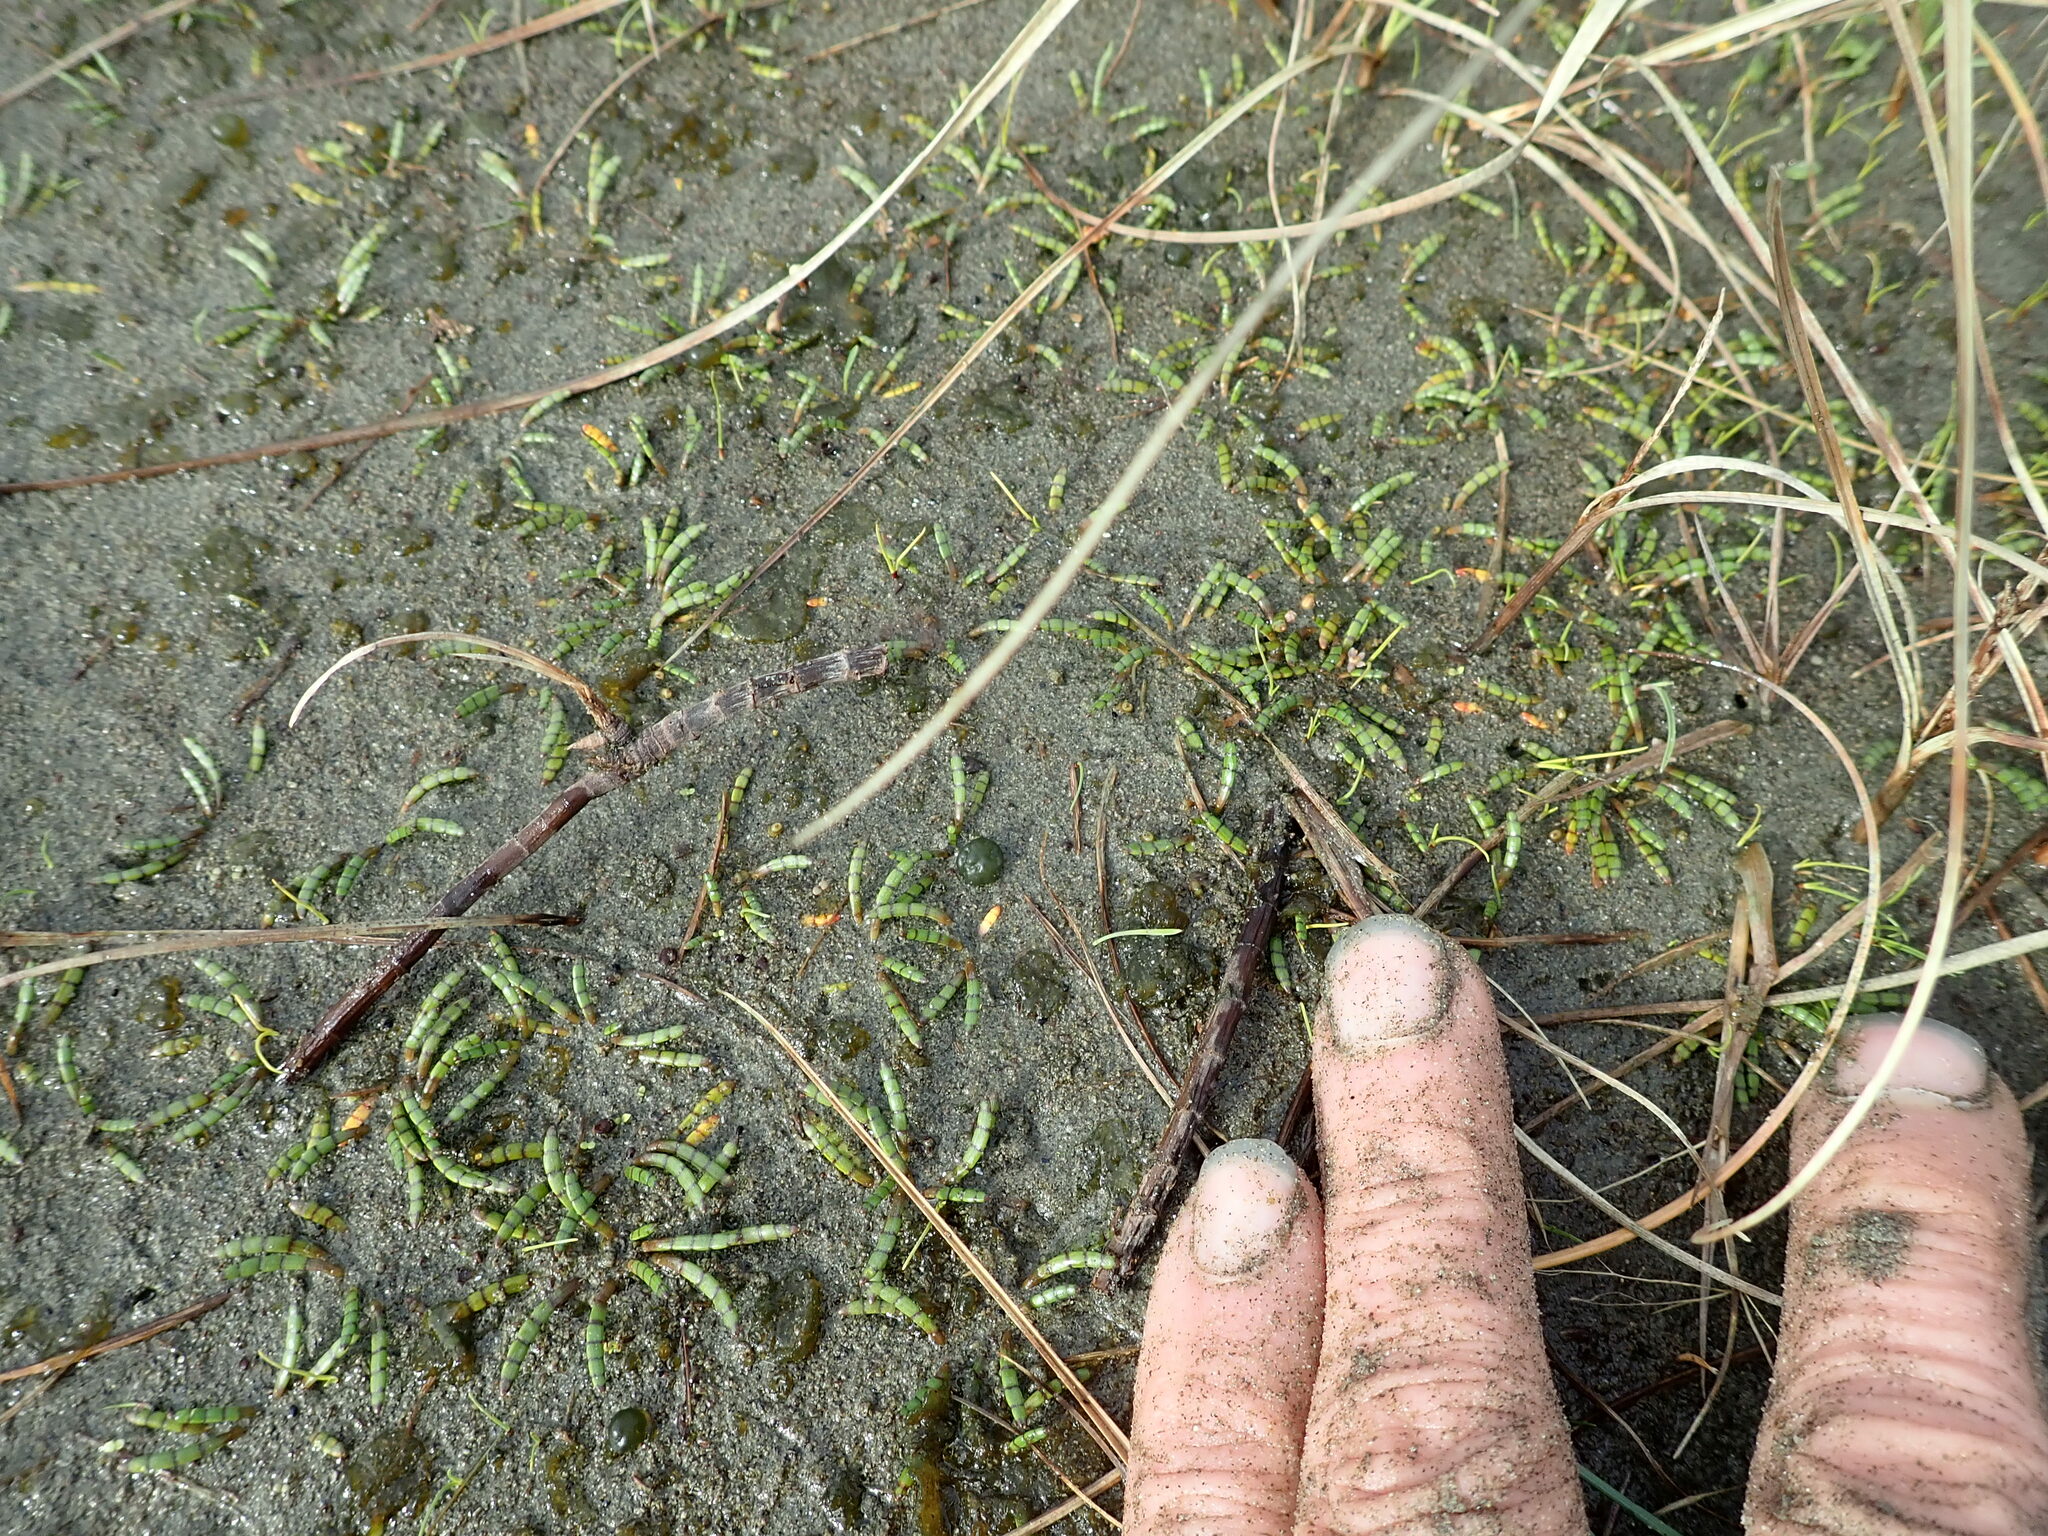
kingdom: Plantae
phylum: Tracheophyta
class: Magnoliopsida
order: Apiales
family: Apiaceae
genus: Lilaeopsis
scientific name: Lilaeopsis novae-zelandiae
